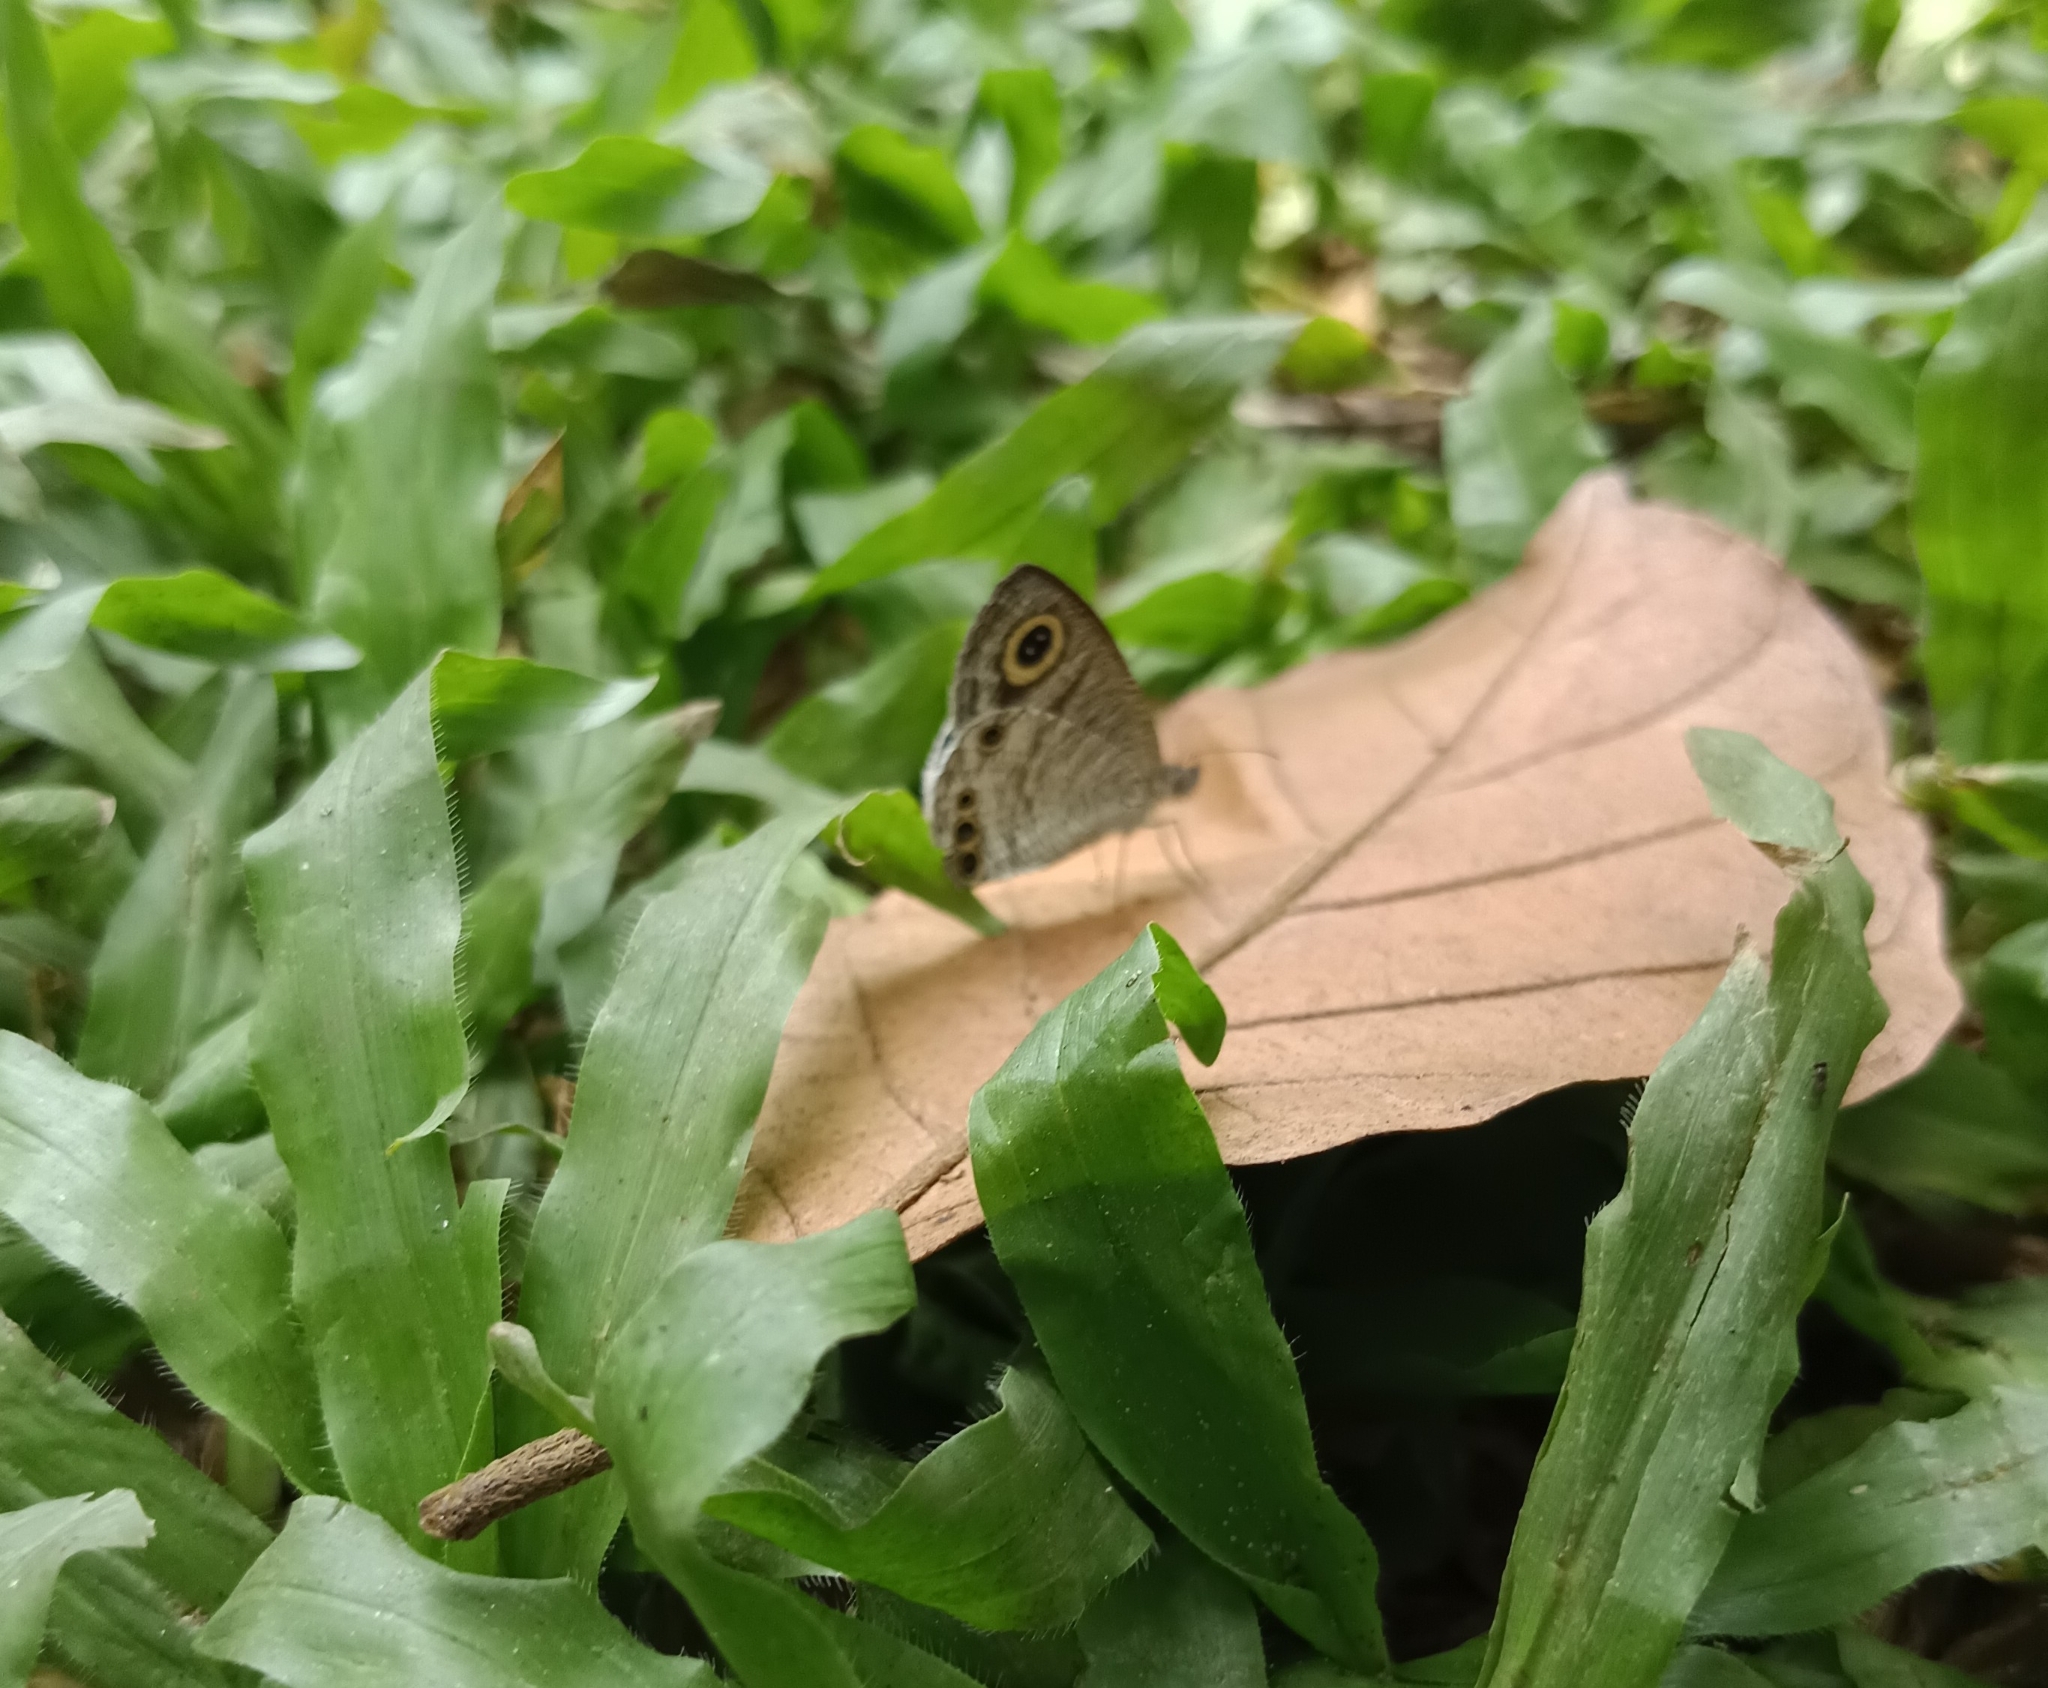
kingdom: Animalia
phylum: Arthropoda
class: Insecta
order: Lepidoptera
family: Nymphalidae
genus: Ypthima
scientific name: Ypthima huebneri
